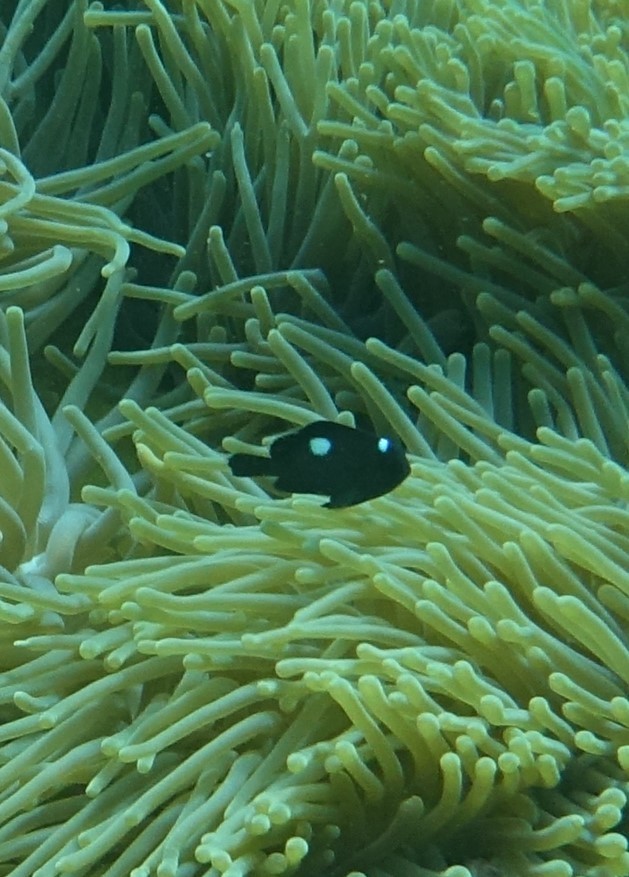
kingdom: Animalia
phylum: Chordata
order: Perciformes
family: Pomacentridae
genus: Dascyllus
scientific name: Dascyllus trimaculatus
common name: Threespot dascyllus
